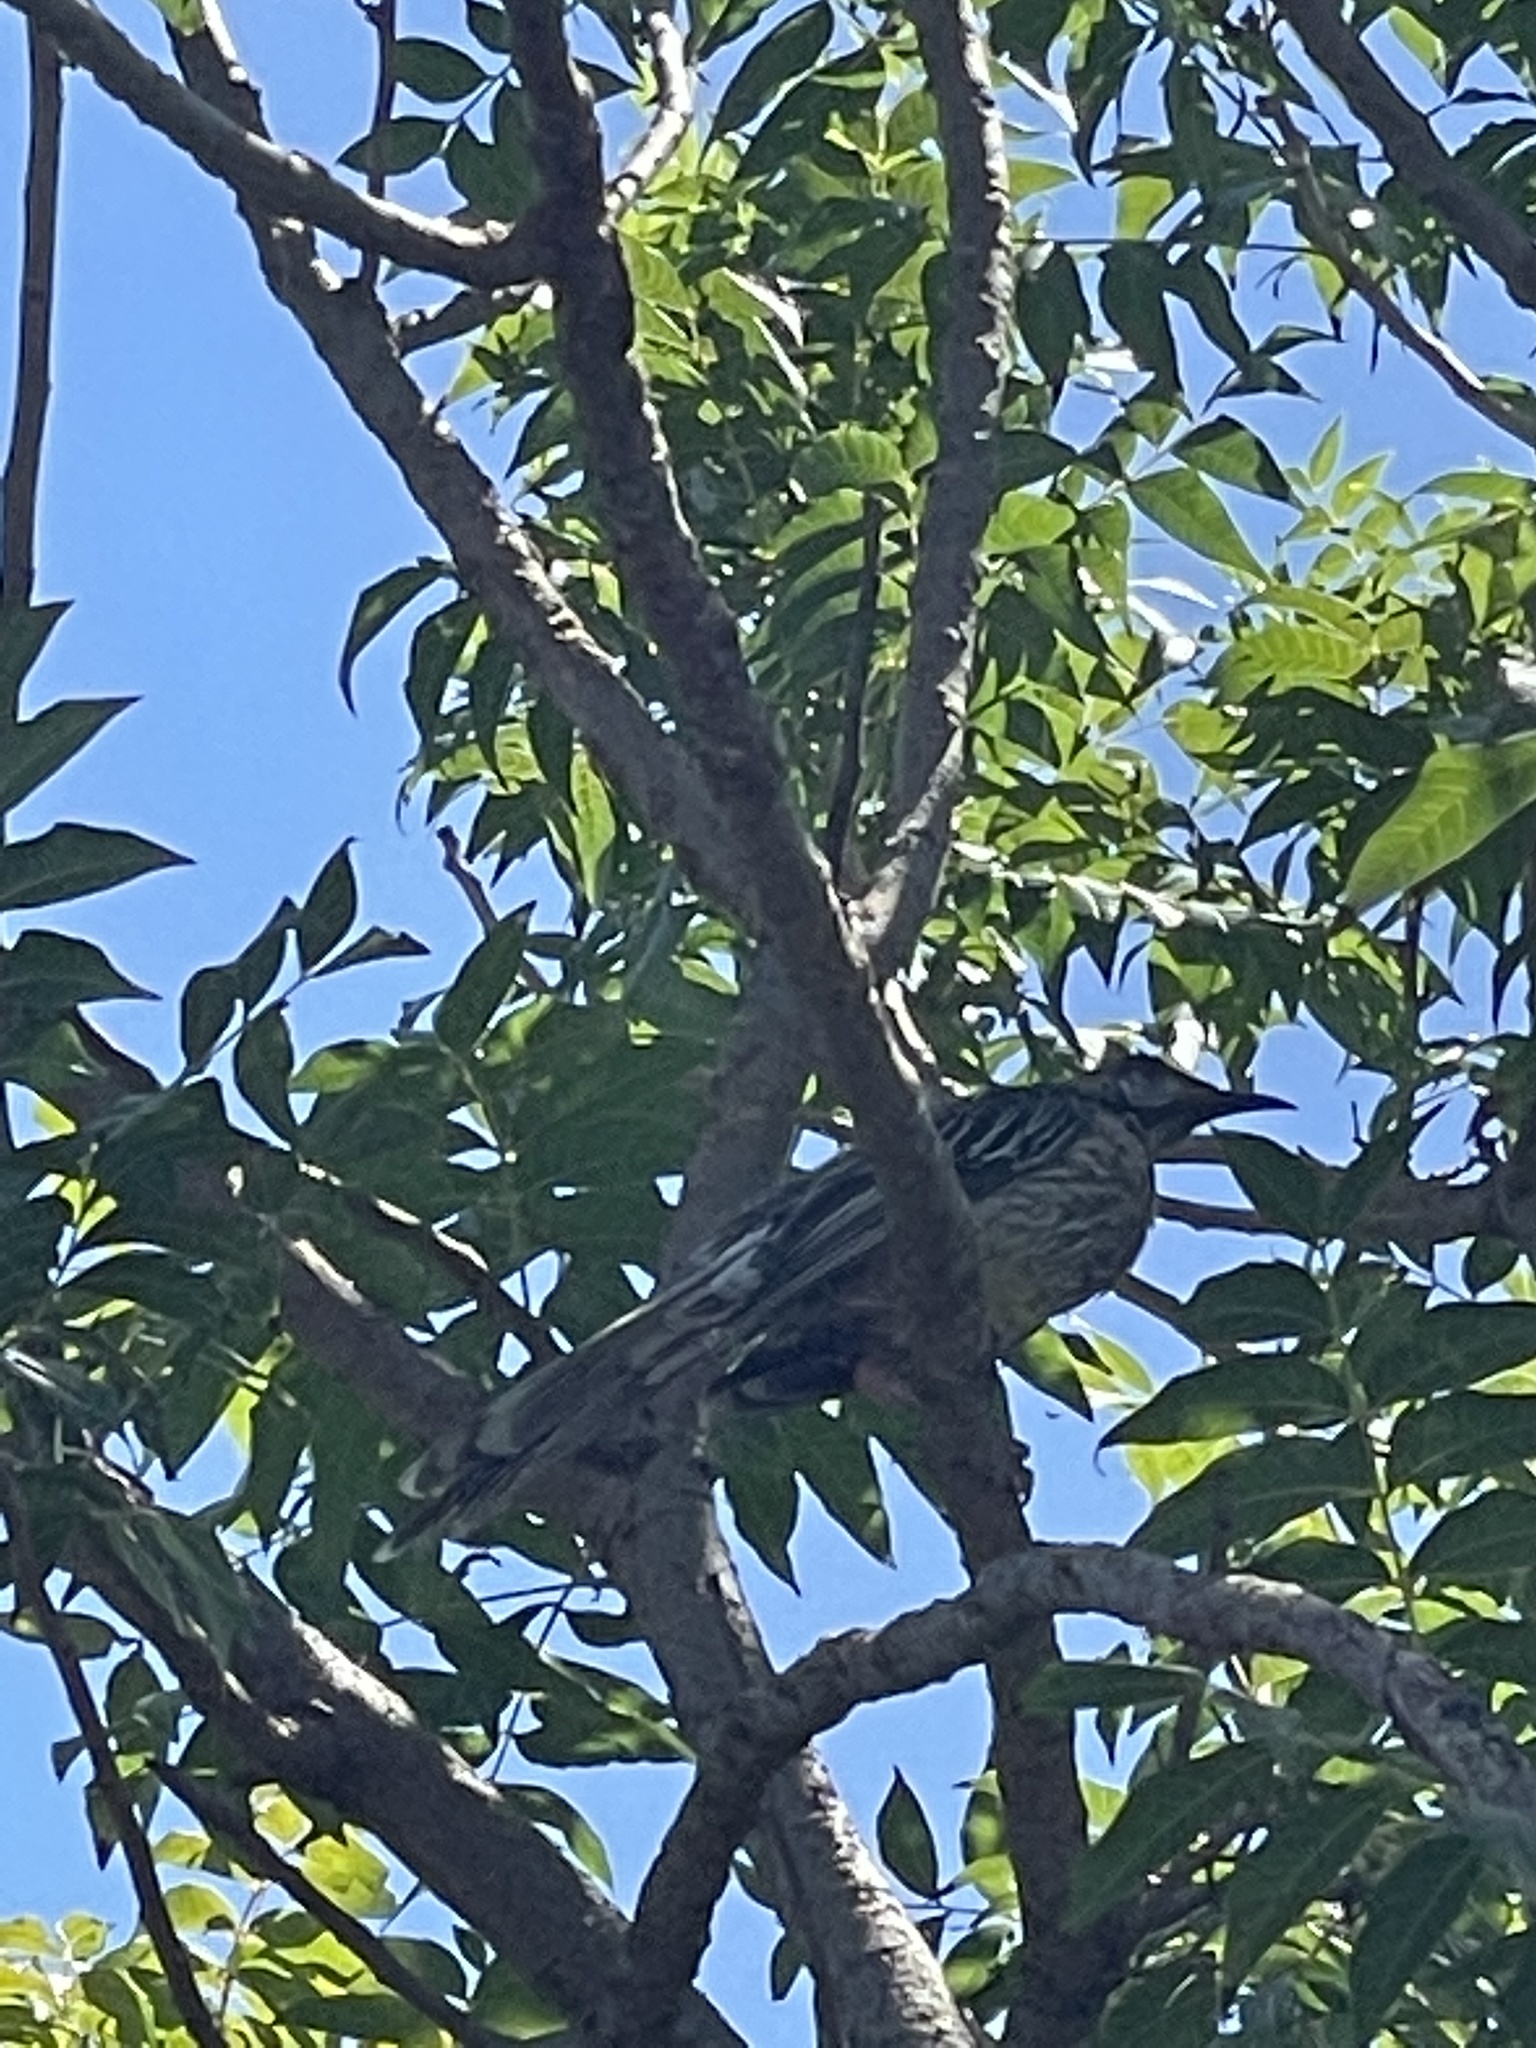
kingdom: Animalia
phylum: Chordata
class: Aves
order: Passeriformes
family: Meliphagidae
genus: Anthochaera
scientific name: Anthochaera carunculata
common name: Red wattlebird
